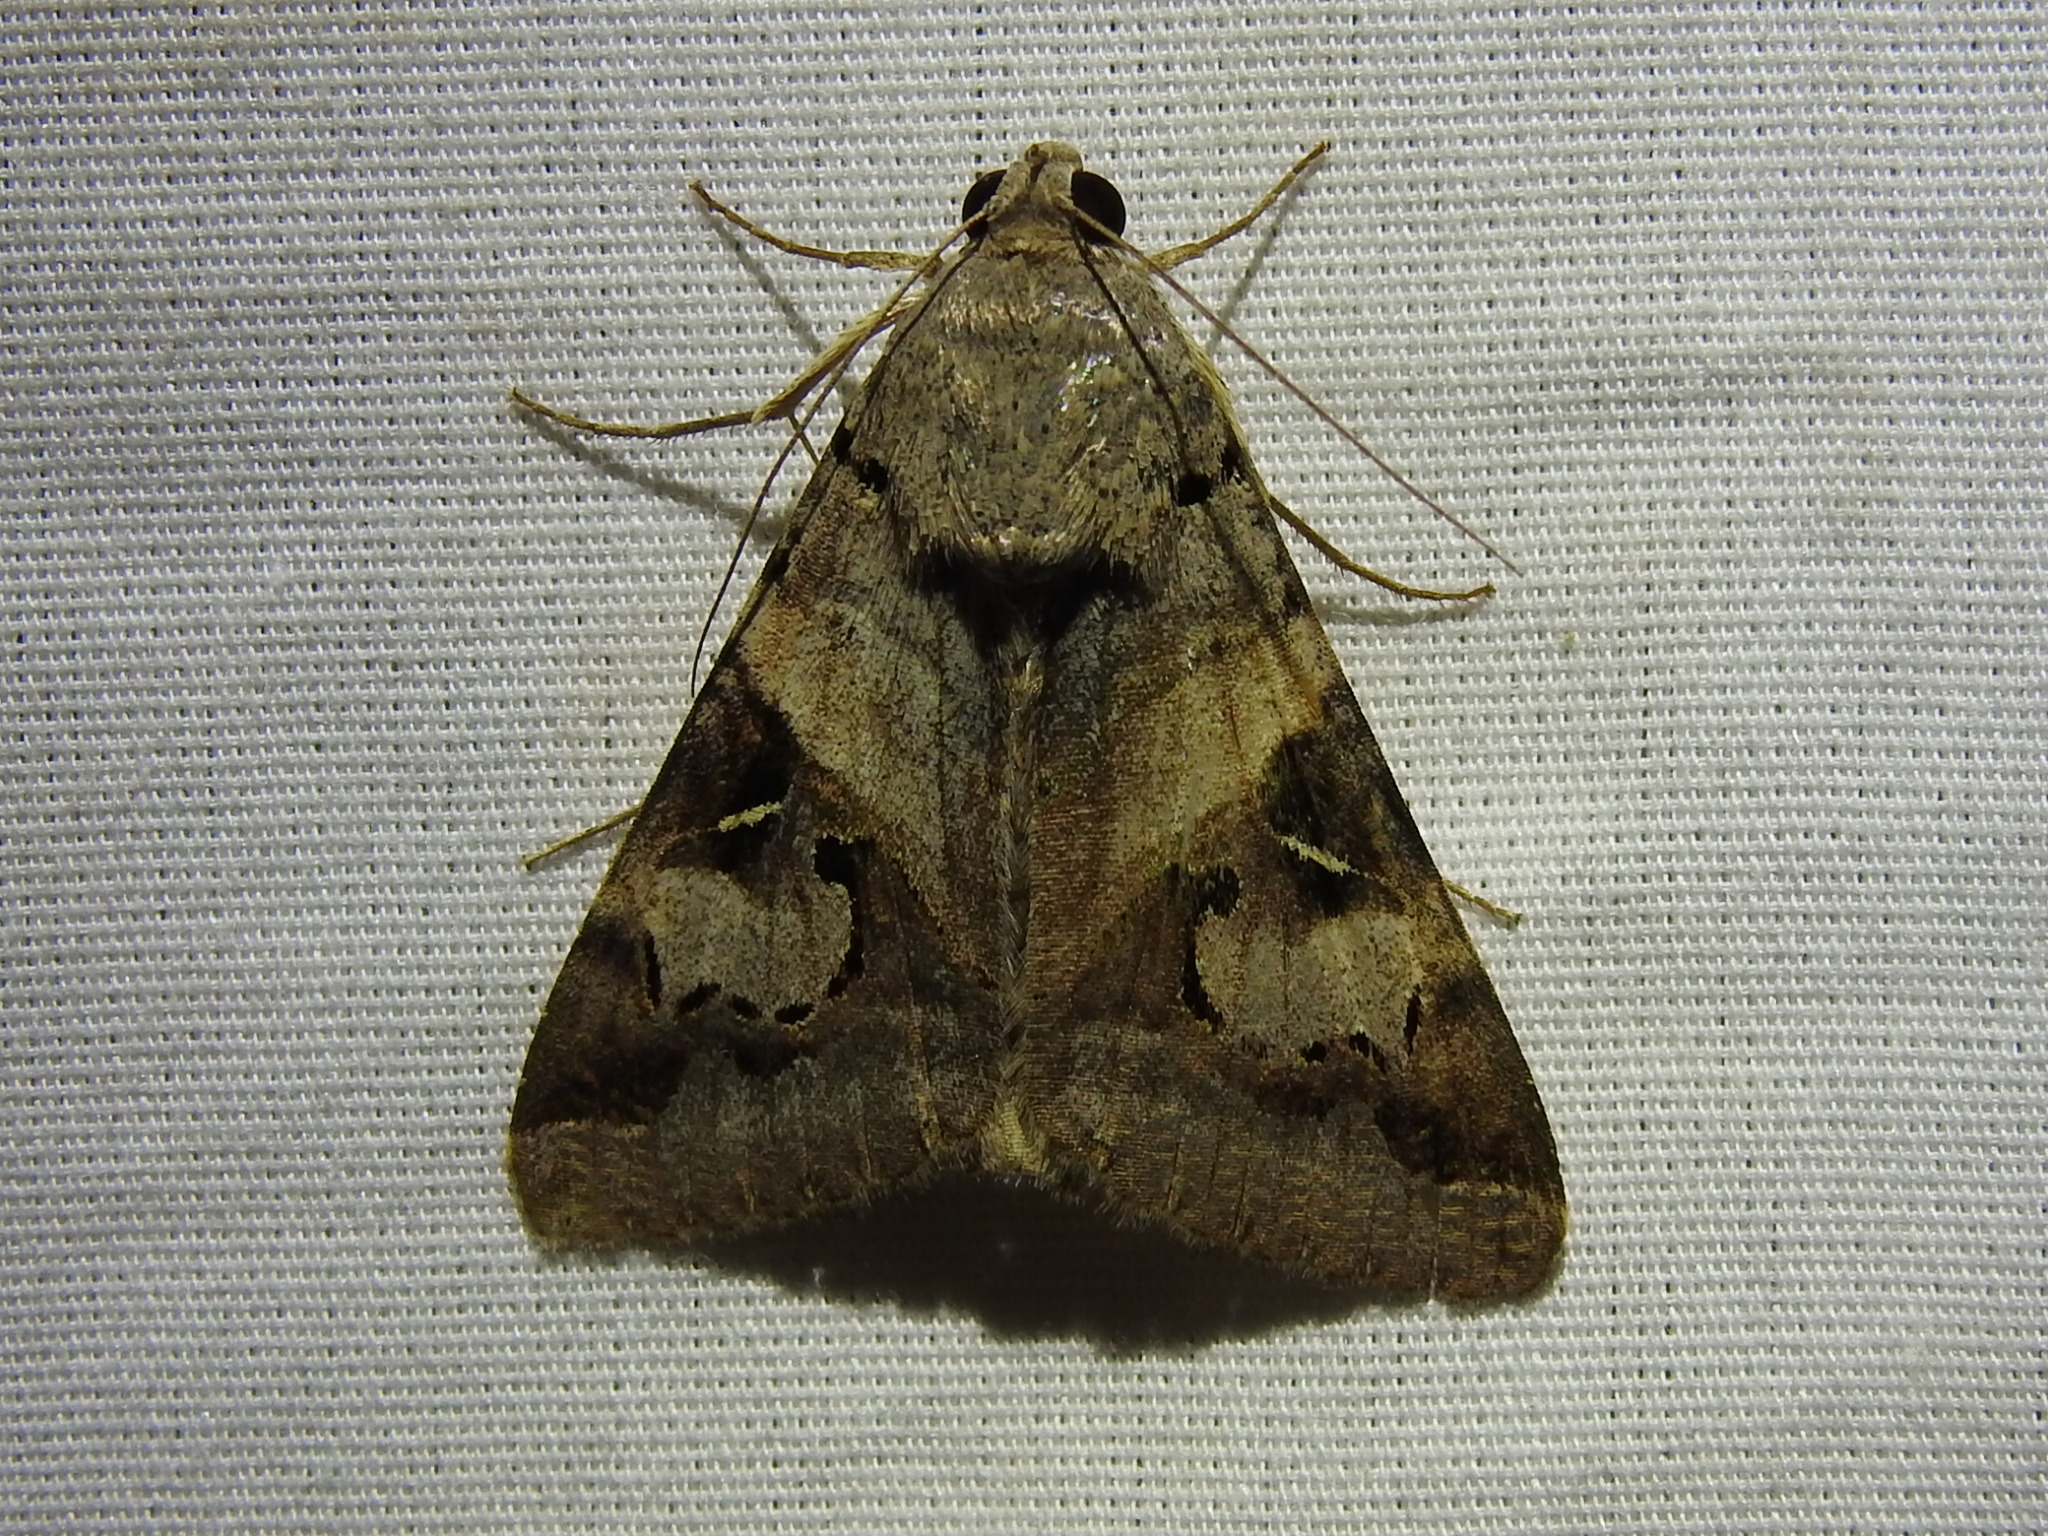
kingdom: Animalia
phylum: Arthropoda
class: Insecta
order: Lepidoptera
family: Erebidae
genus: Melipotis
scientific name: Melipotis indomita
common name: Moth
